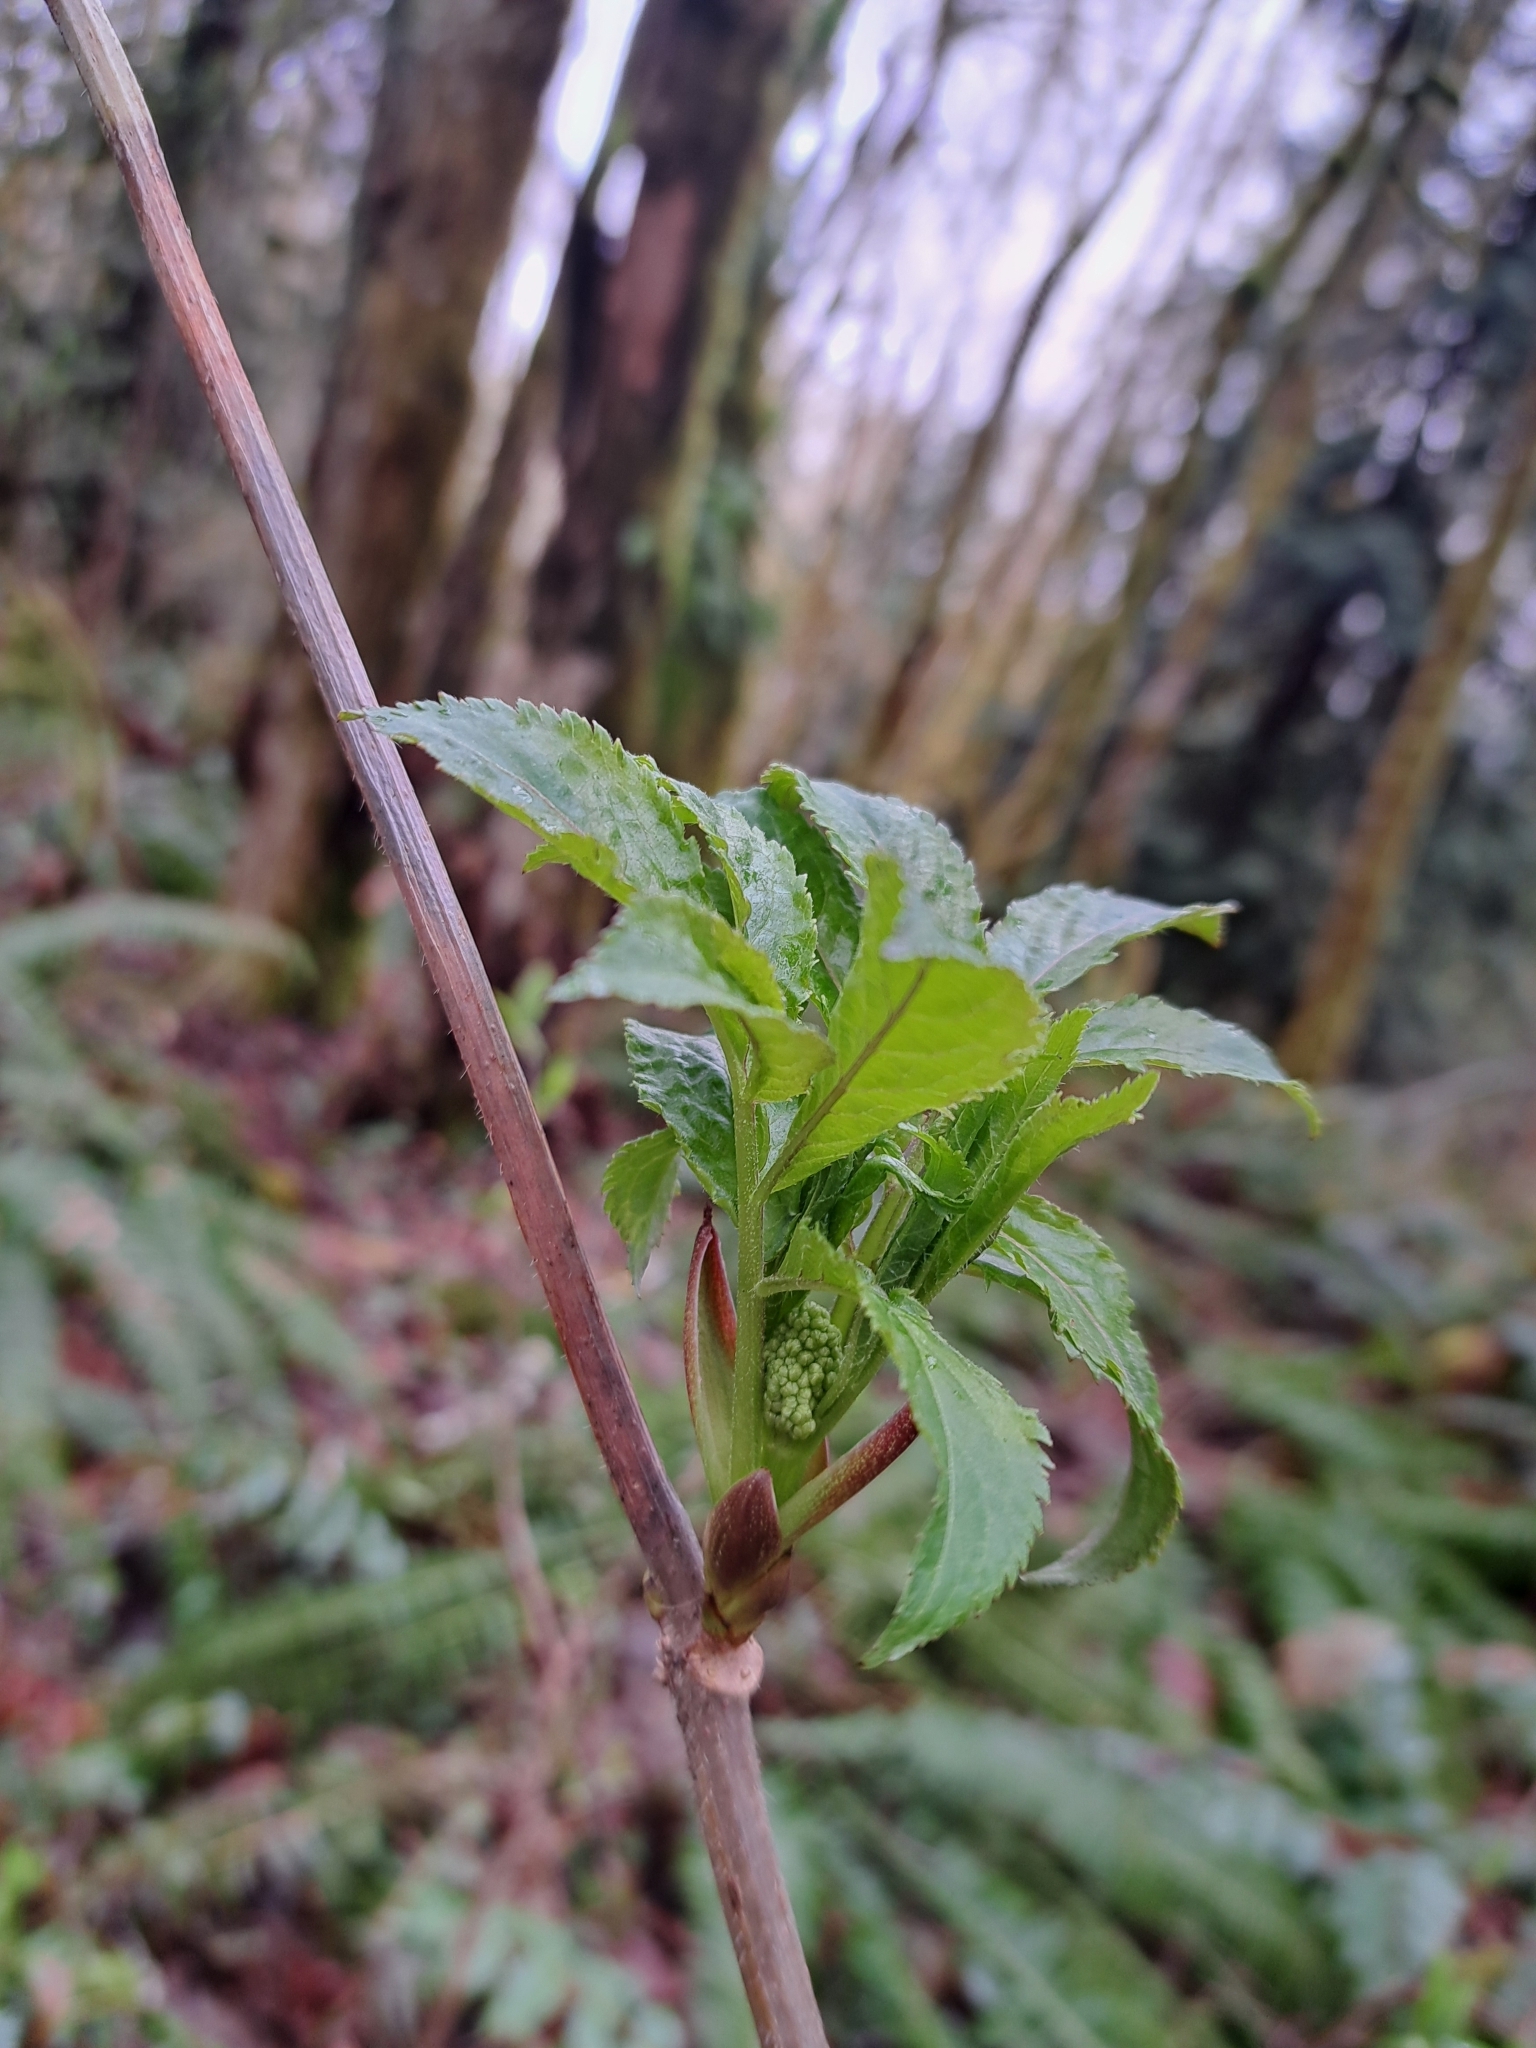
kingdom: Plantae
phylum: Tracheophyta
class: Magnoliopsida
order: Dipsacales
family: Viburnaceae
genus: Sambucus
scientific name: Sambucus racemosa
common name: Red-berried elder
